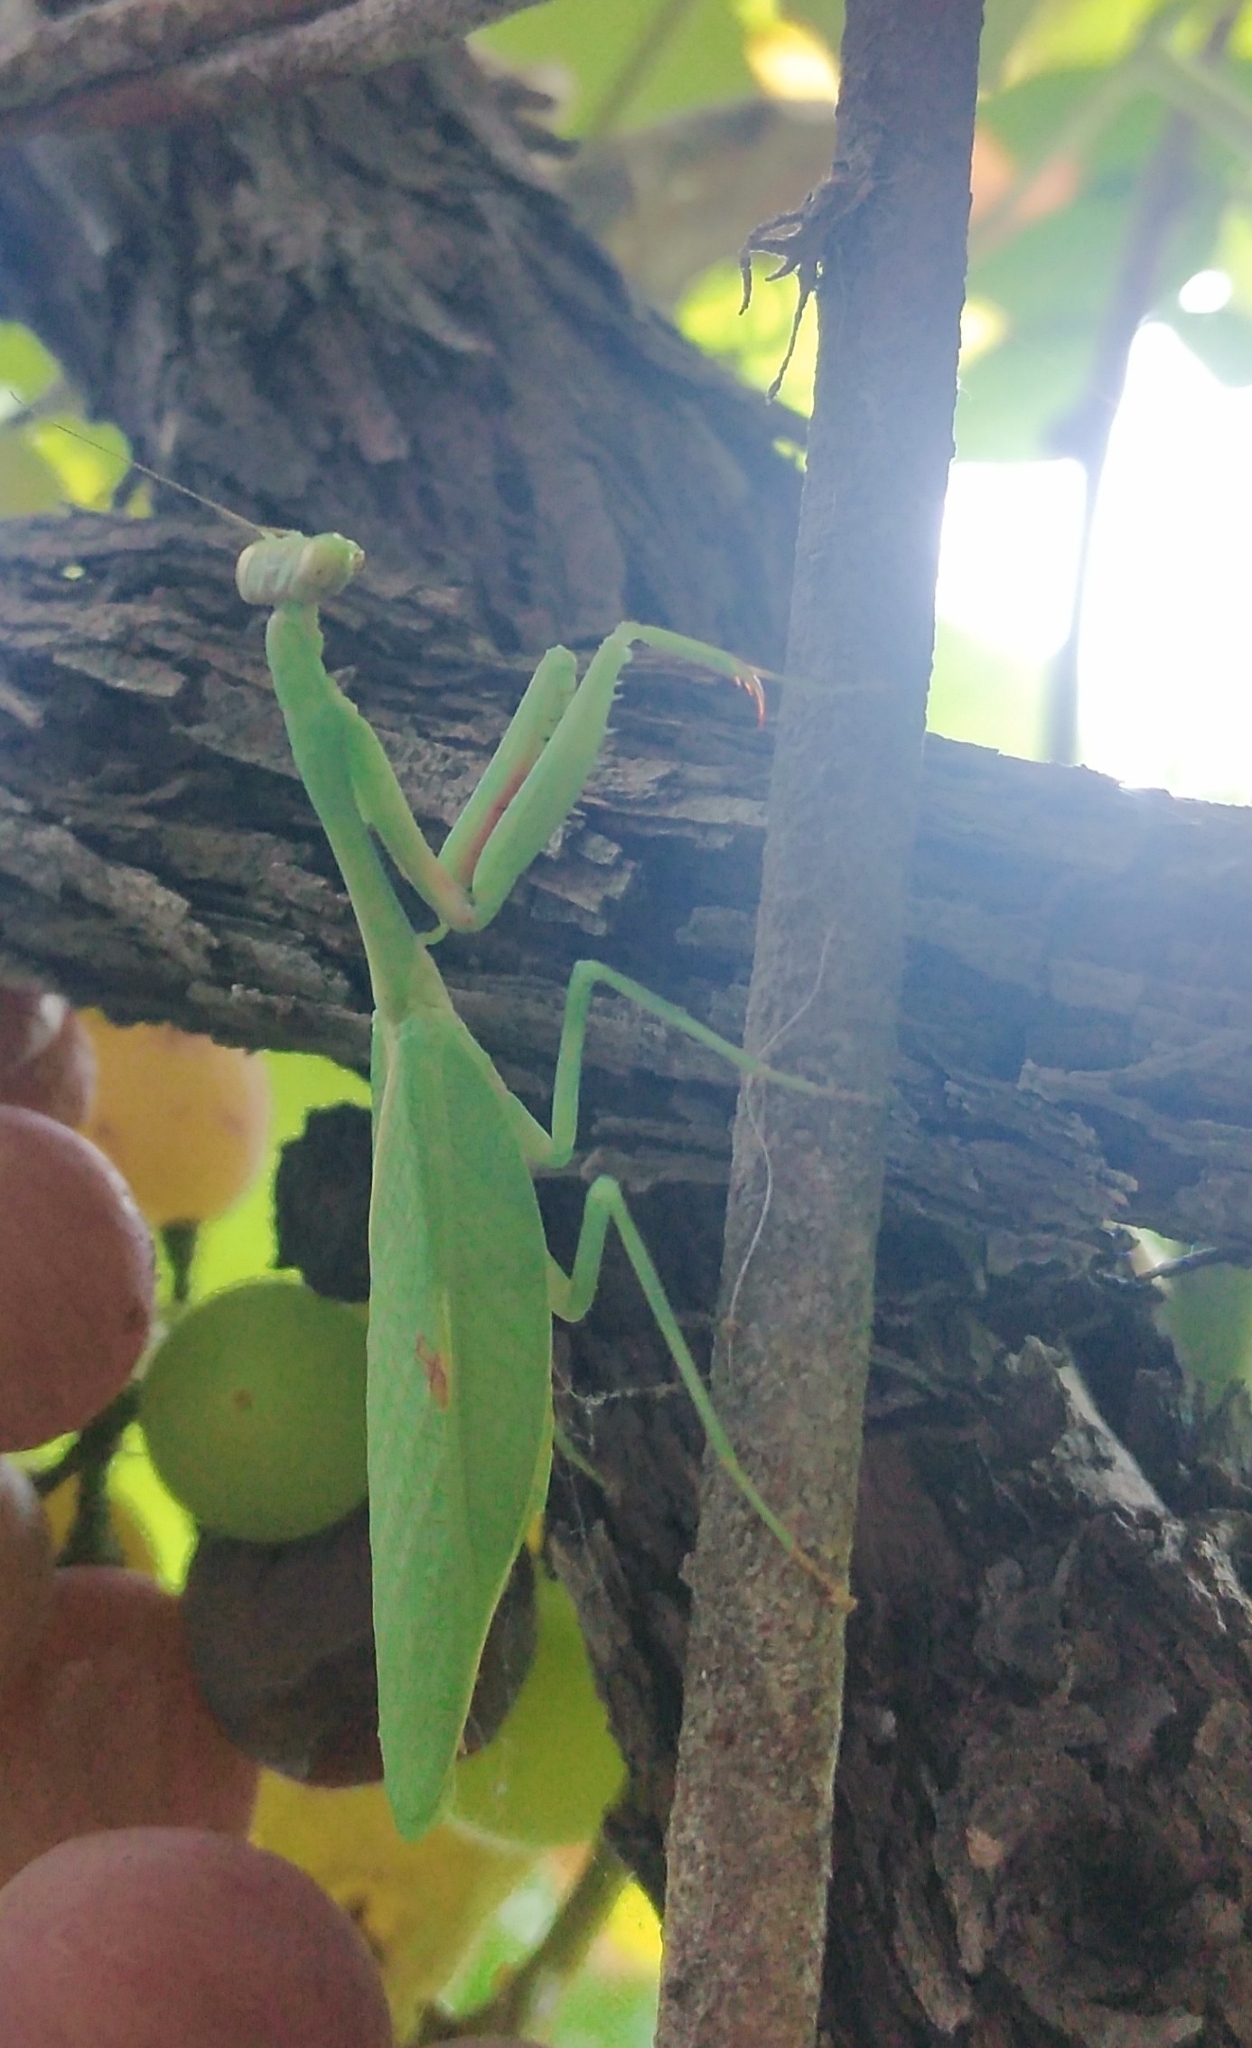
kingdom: Animalia
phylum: Arthropoda
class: Insecta
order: Mantodea
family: Mantidae
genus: Parastagmatoptera
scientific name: Parastagmatoptera theresopolitana
